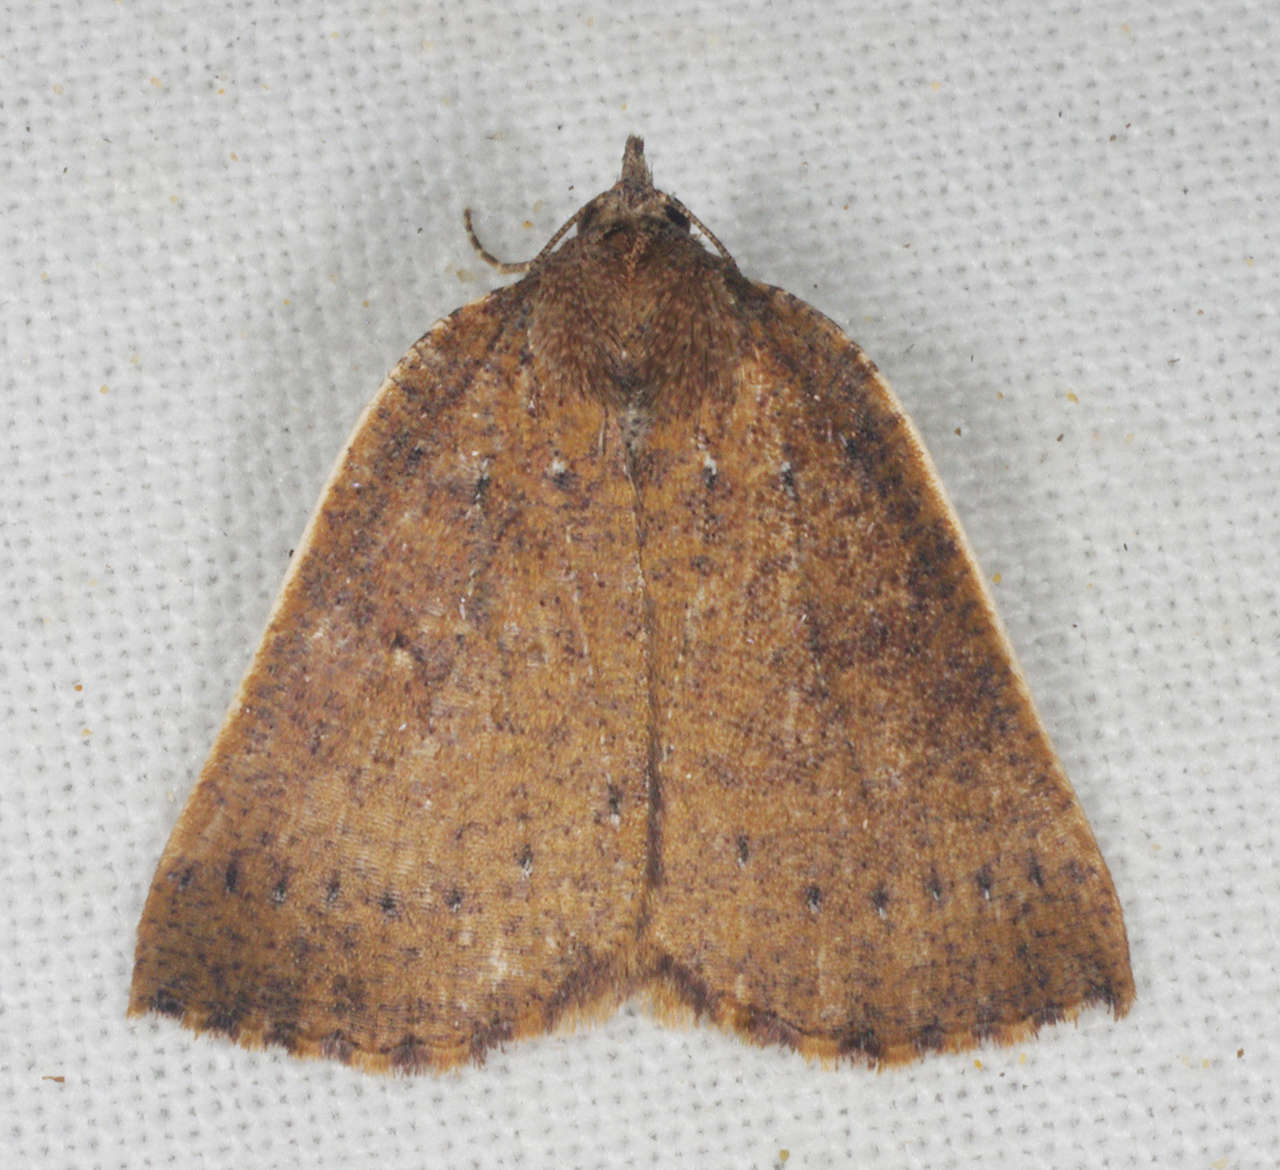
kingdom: Animalia
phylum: Arthropoda
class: Insecta
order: Lepidoptera
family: Geometridae
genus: Authaemon
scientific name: Authaemon stenonipha
